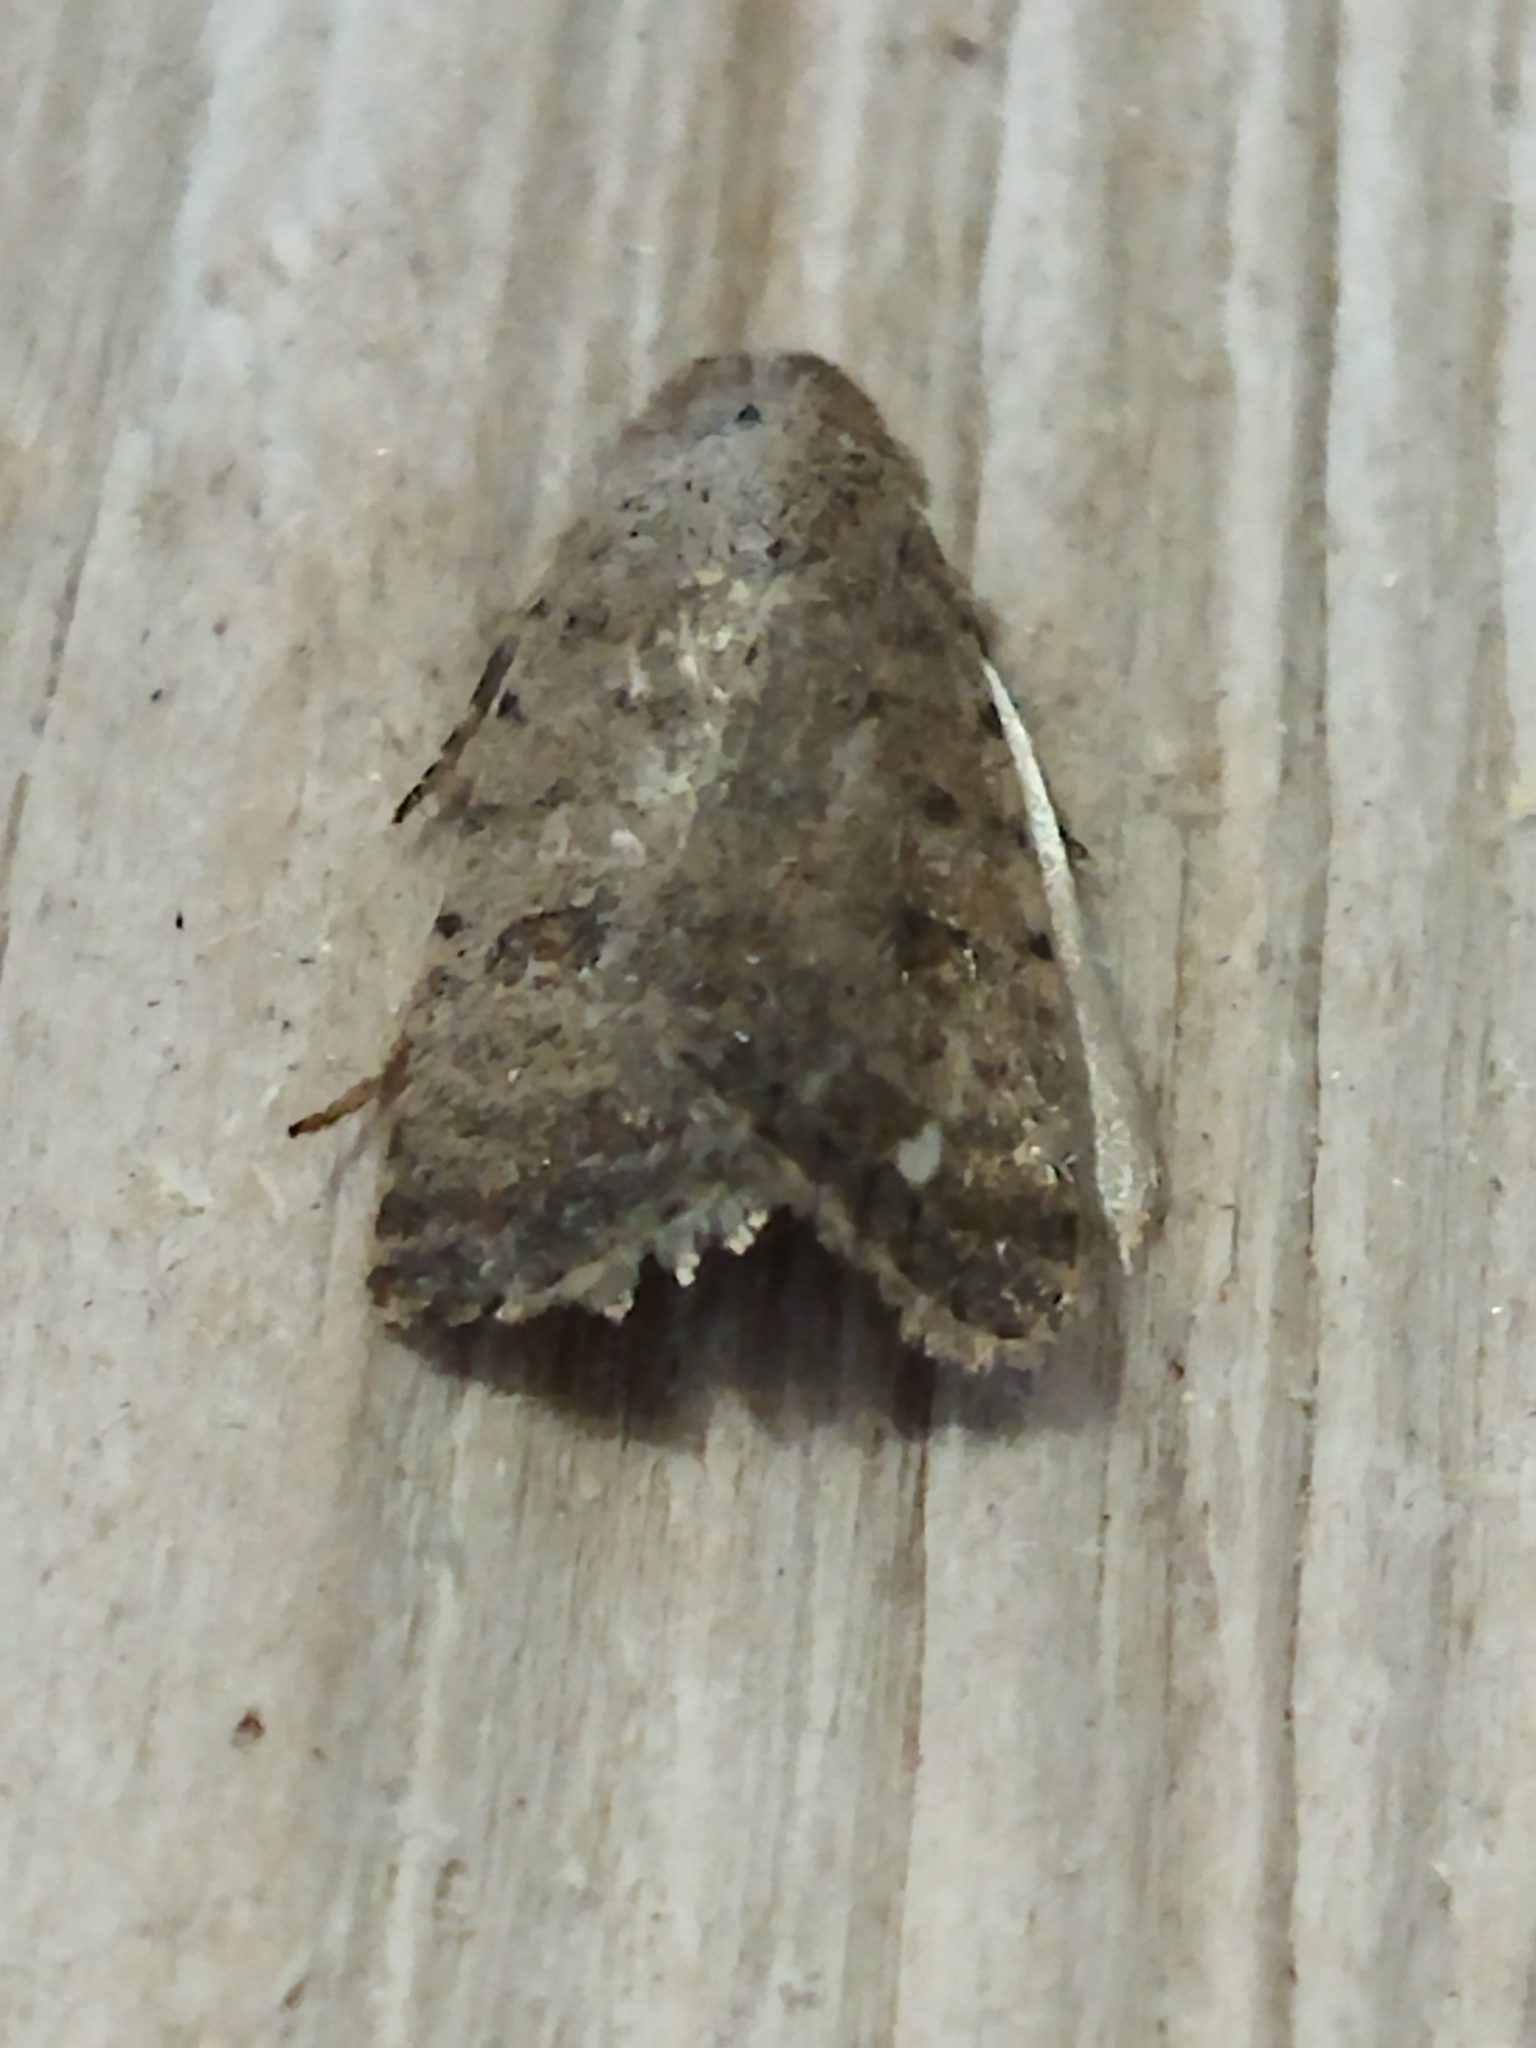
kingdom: Animalia
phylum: Arthropoda
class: Insecta
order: Lepidoptera
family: Noctuidae
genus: Caradrina
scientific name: Caradrina clavipalpis
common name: Pale mottled willow
